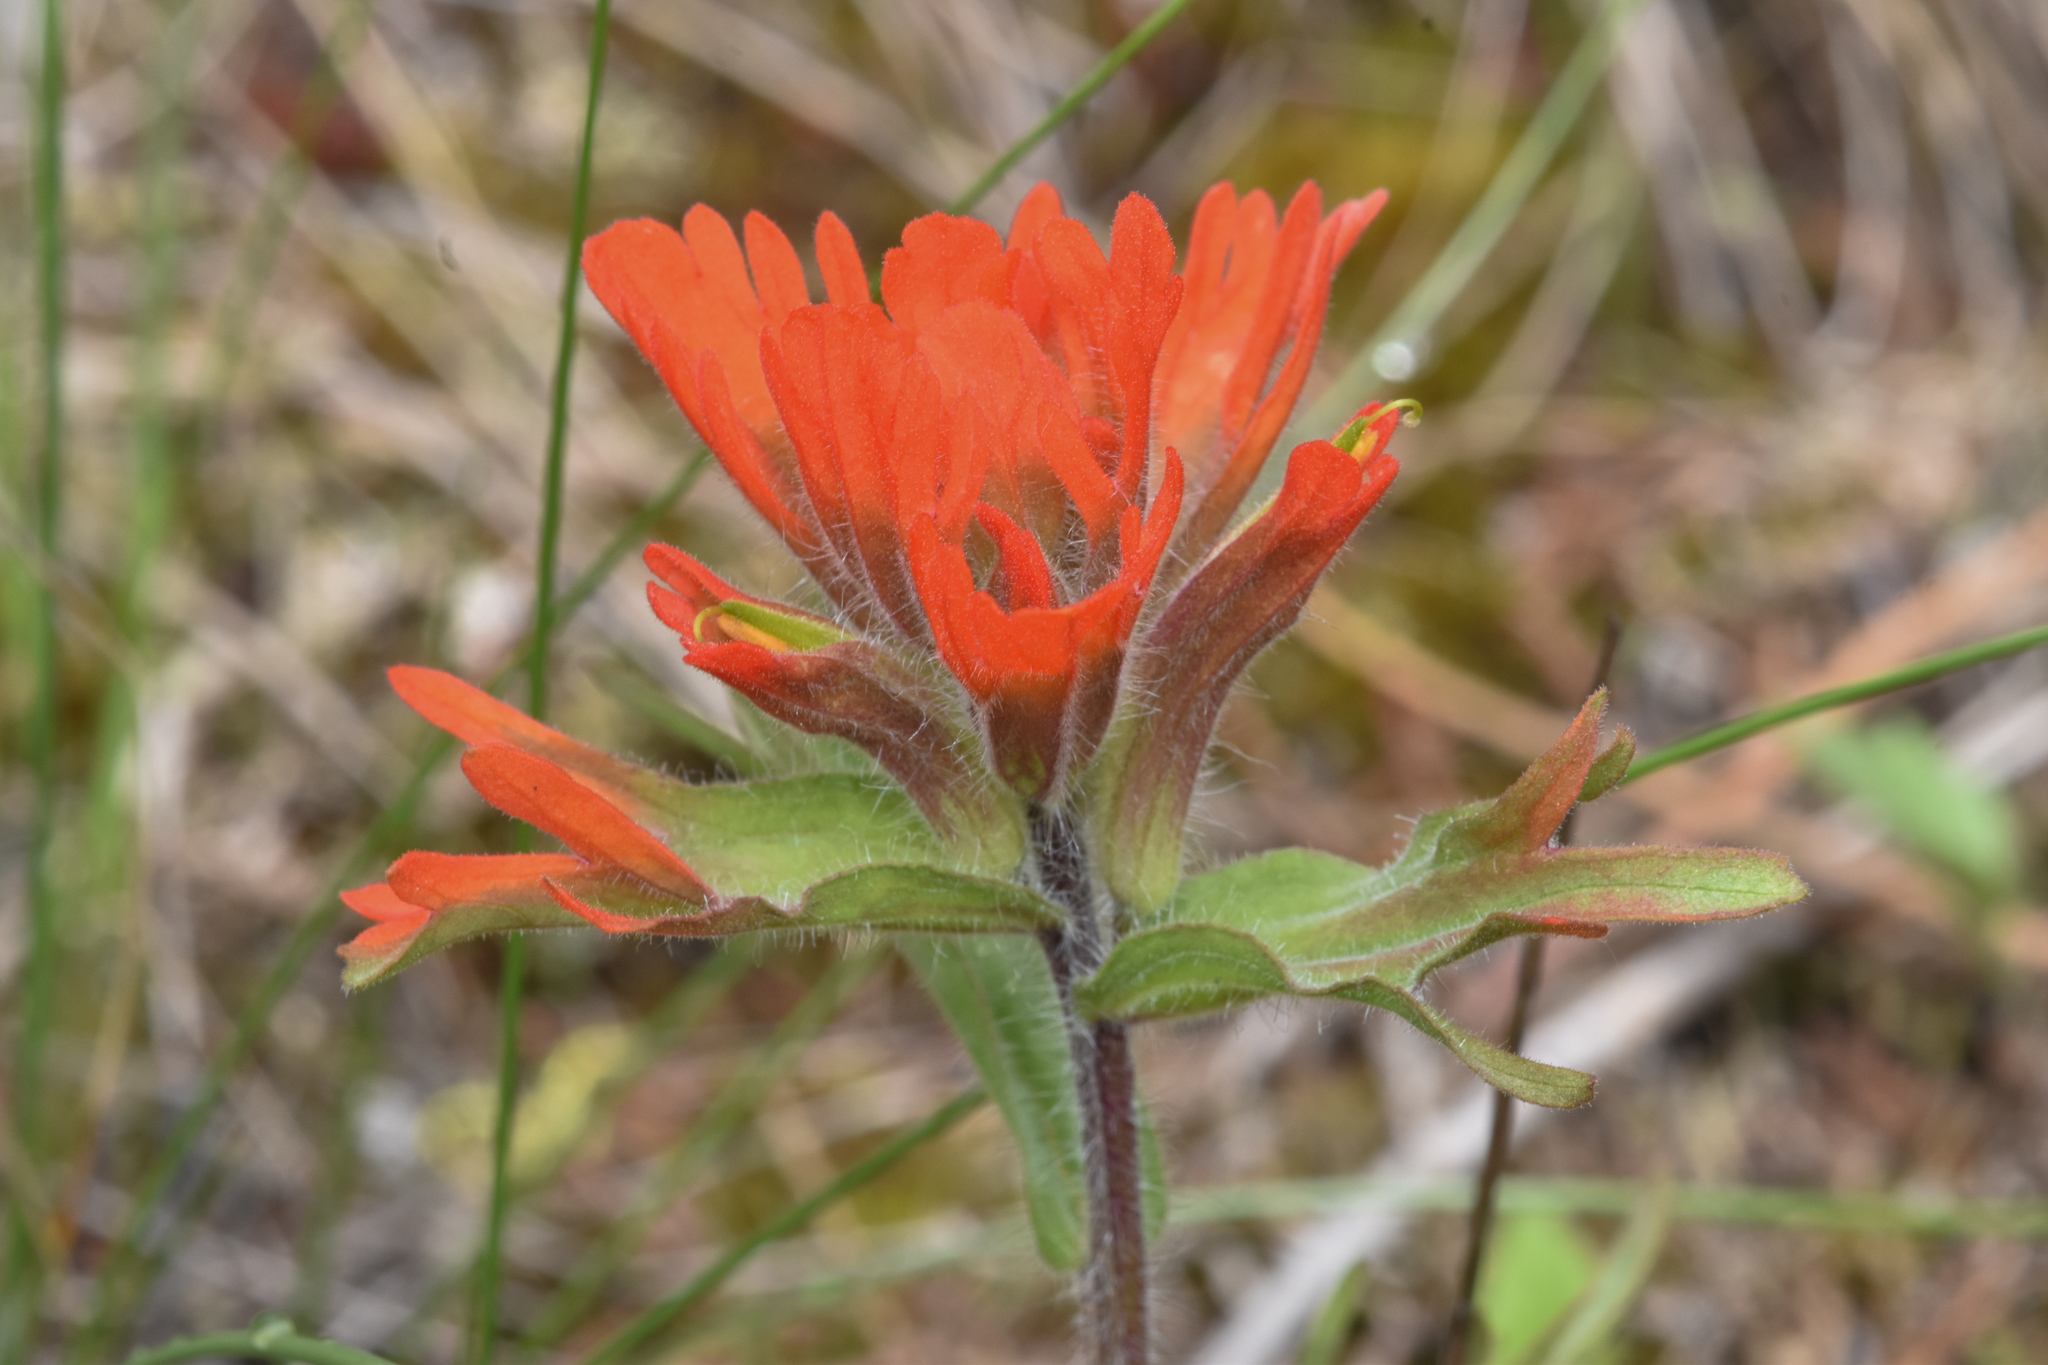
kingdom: Plantae
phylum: Tracheophyta
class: Magnoliopsida
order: Lamiales
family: Orobanchaceae
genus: Castilleja
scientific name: Castilleja hispida
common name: Bristly paintbrush
